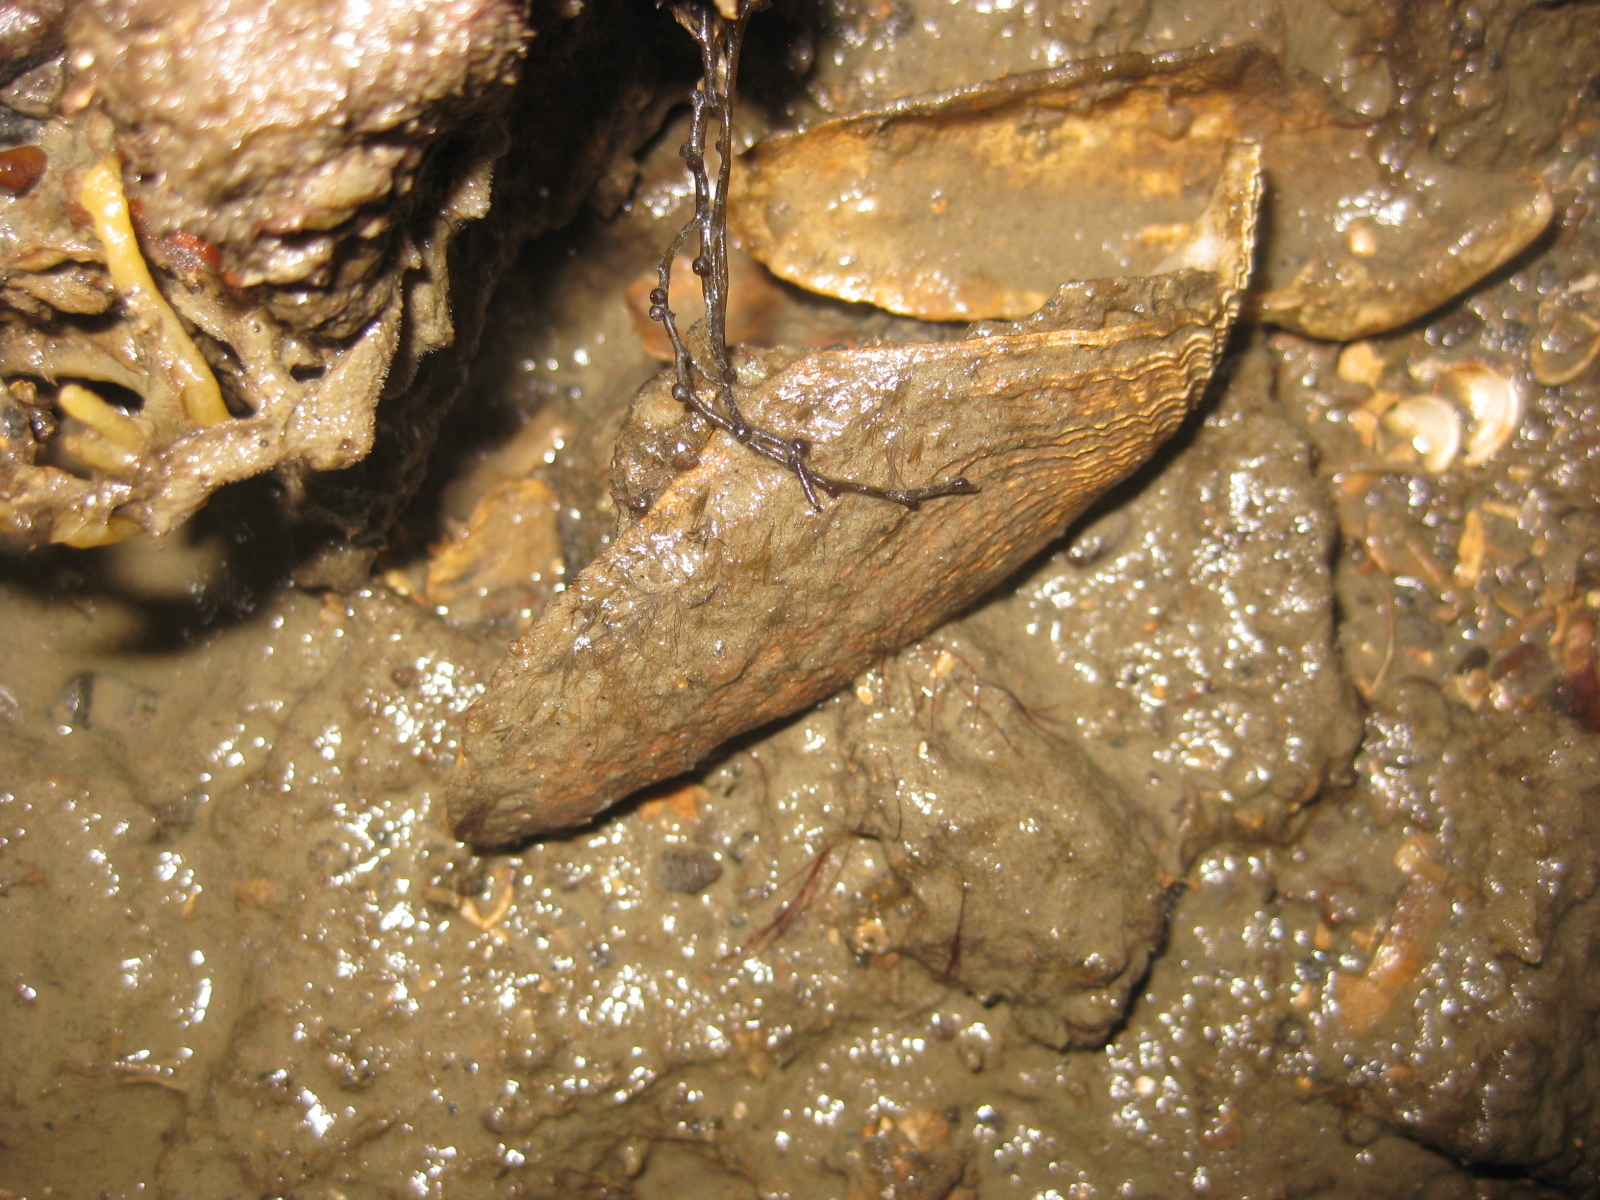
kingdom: Animalia
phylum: Mollusca
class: Bivalvia
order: Myida
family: Pholadidae
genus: Barnea
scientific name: Barnea similis
